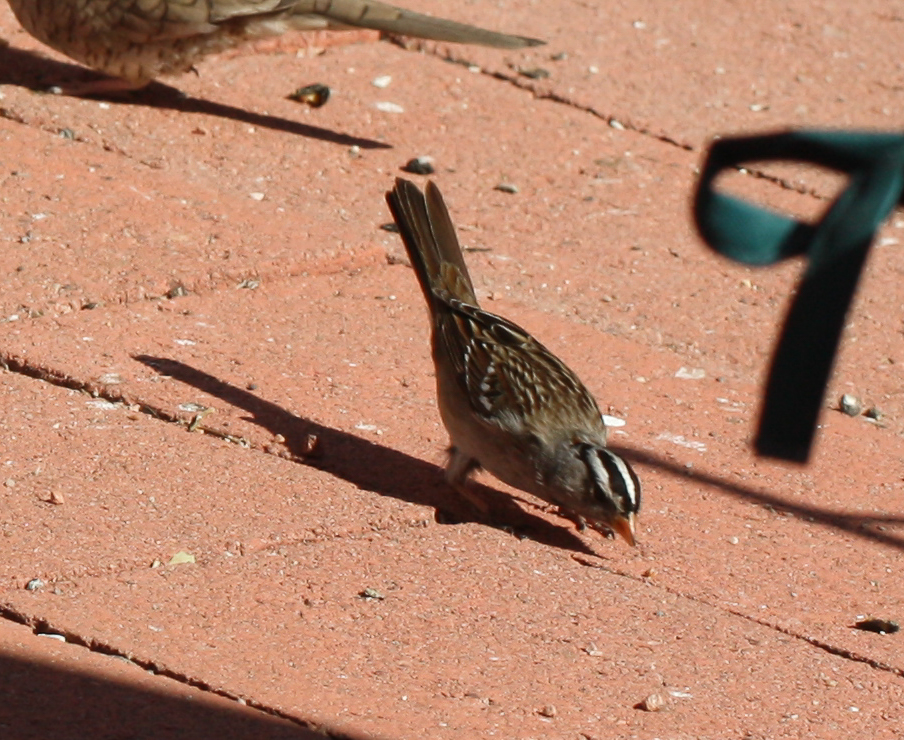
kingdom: Animalia
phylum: Chordata
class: Aves
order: Passeriformes
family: Passerellidae
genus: Zonotrichia
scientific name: Zonotrichia leucophrys
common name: White-crowned sparrow
